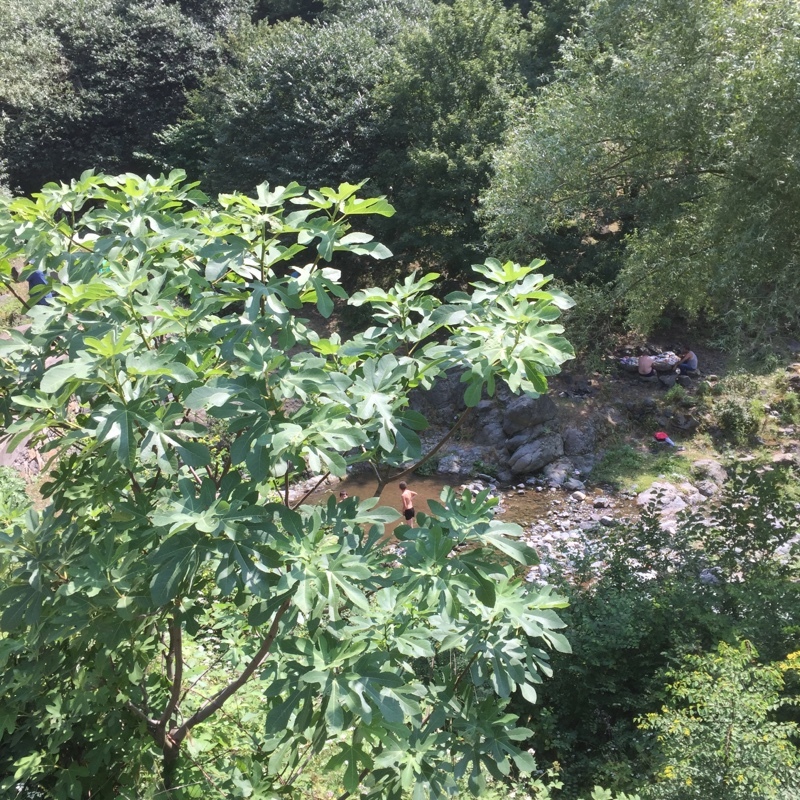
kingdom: Plantae
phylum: Tracheophyta
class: Magnoliopsida
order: Rosales
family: Moraceae
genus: Ficus
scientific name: Ficus carica
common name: Fig
